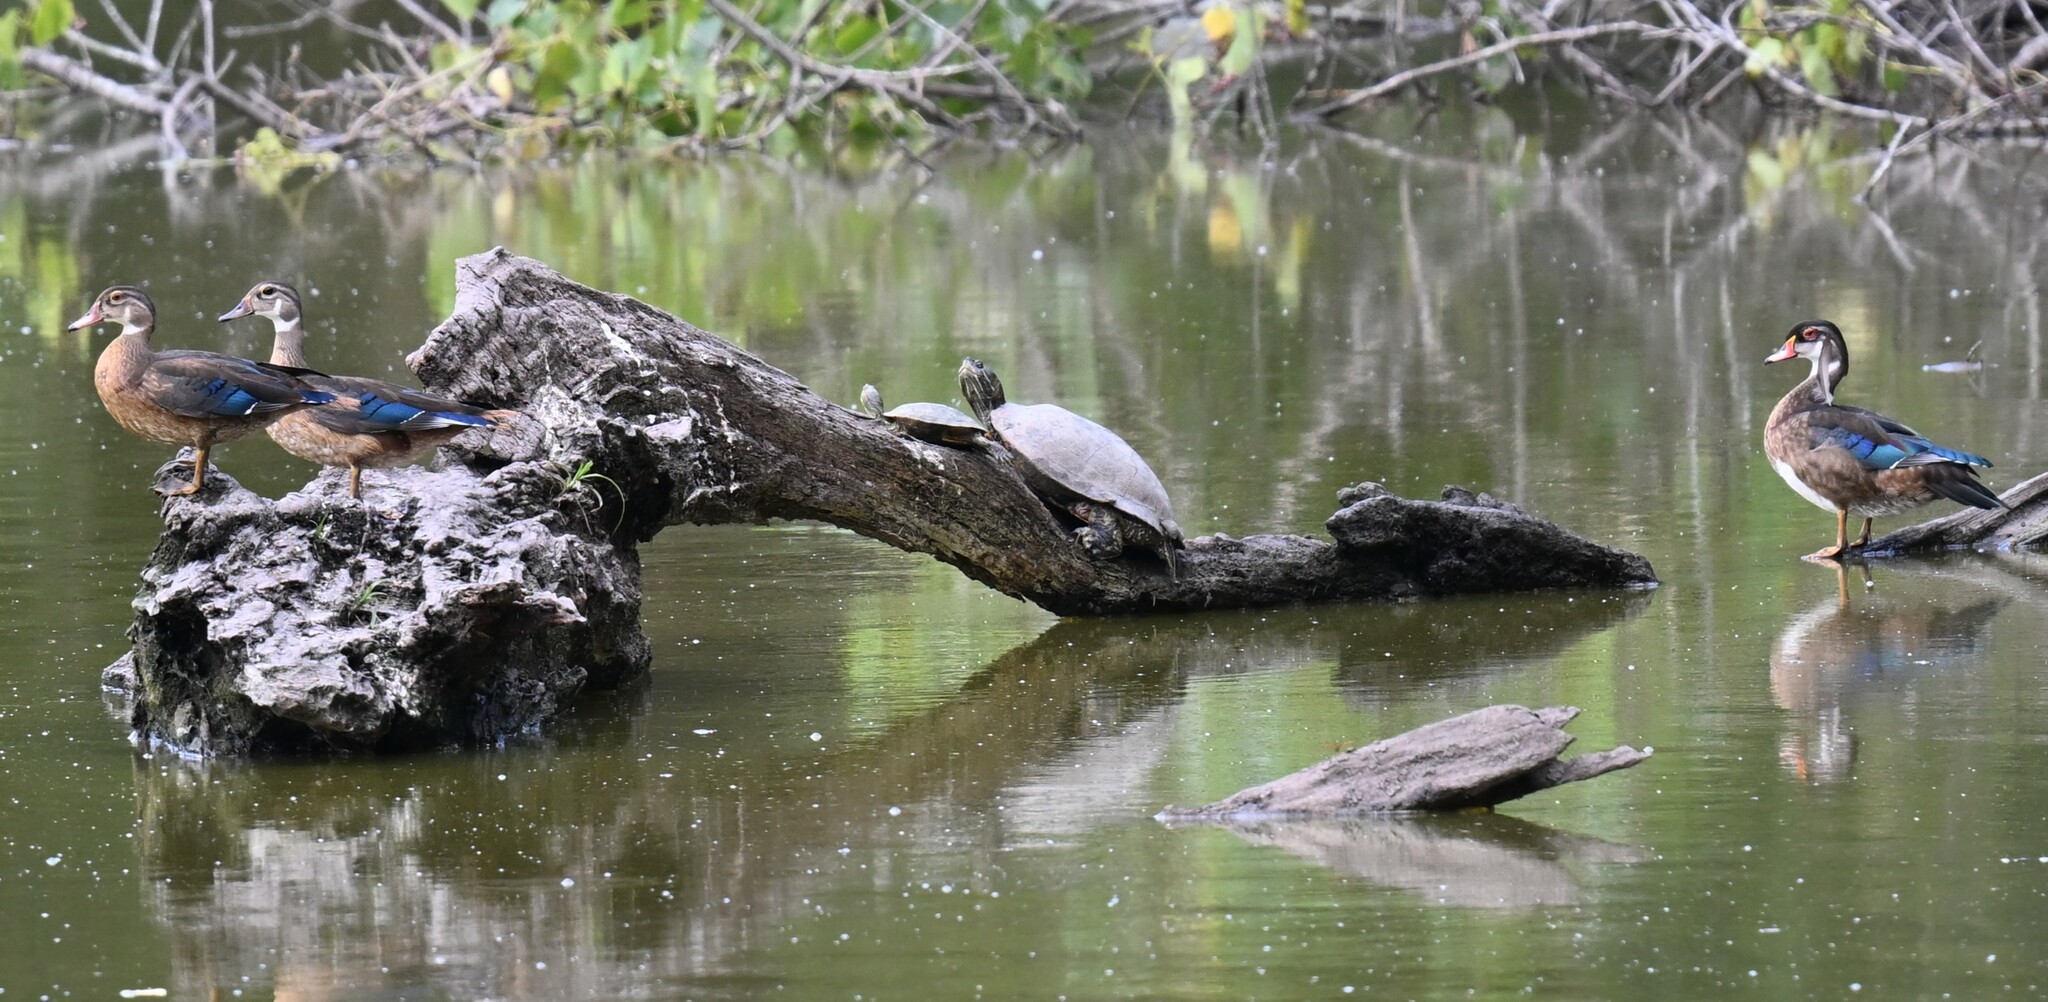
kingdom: Animalia
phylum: Chordata
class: Aves
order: Anseriformes
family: Anatidae
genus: Aix
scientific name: Aix sponsa
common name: Wood duck
